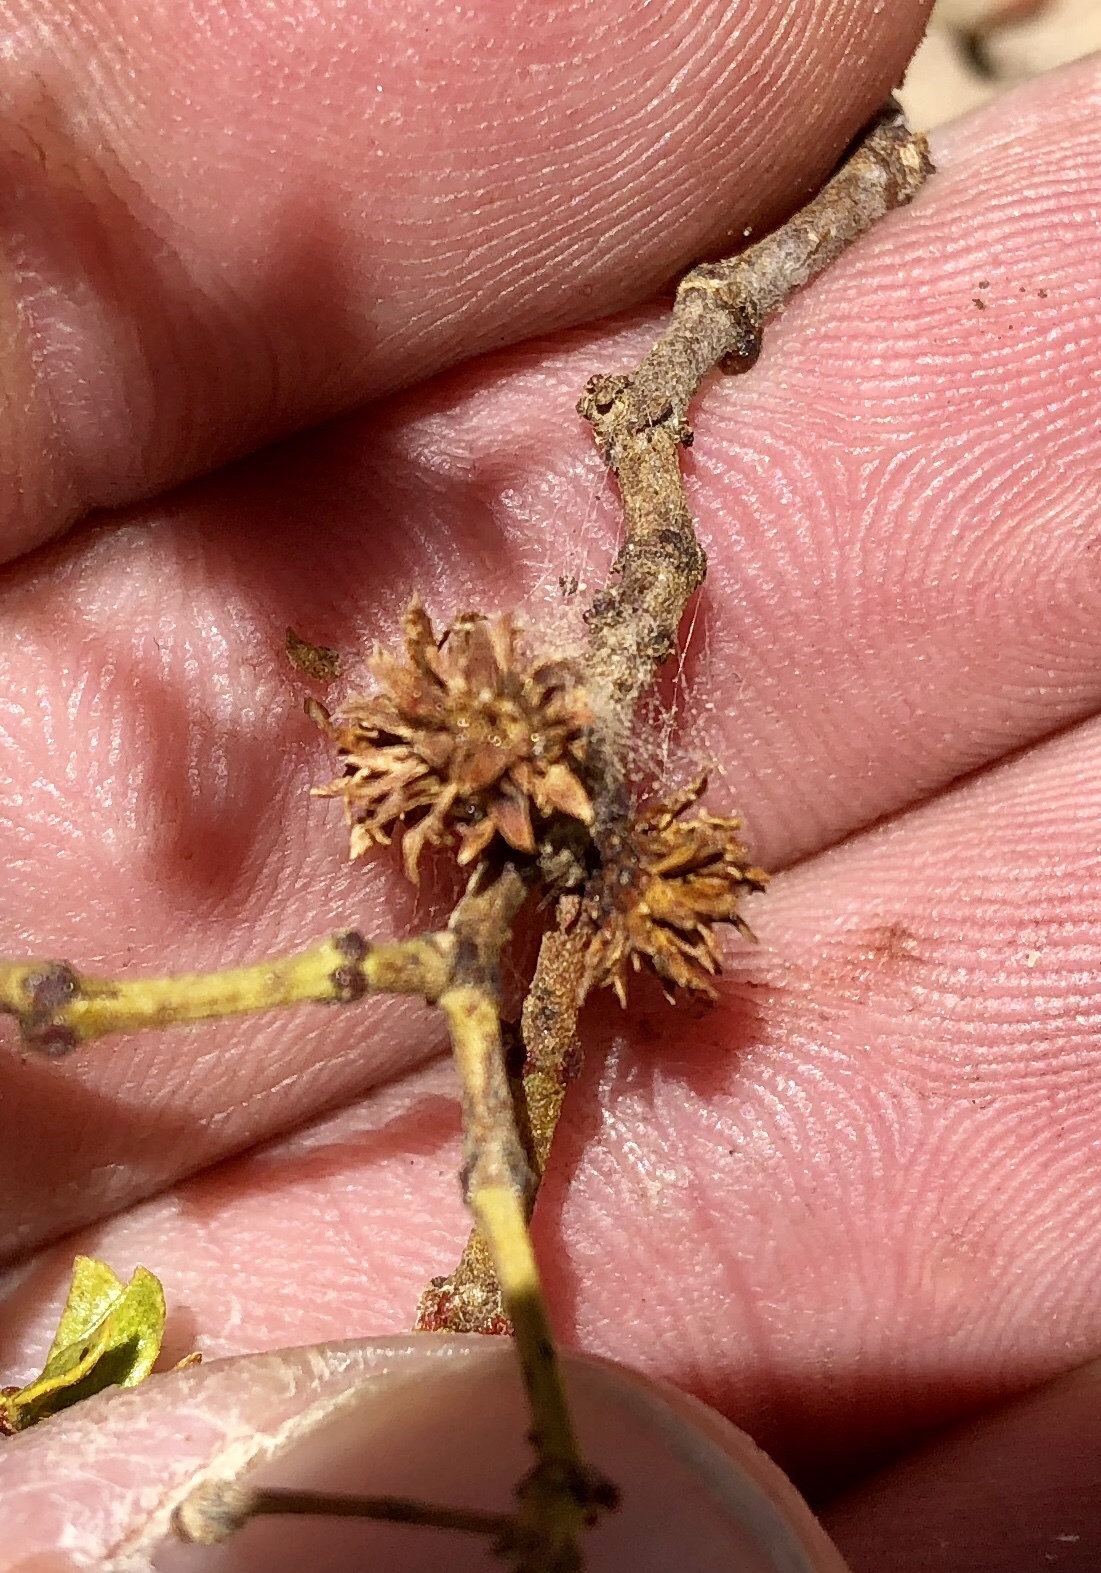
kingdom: Animalia
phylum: Arthropoda
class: Insecta
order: Diptera
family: Cecidomyiidae
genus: Asphondylia
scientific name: Asphondylia rosetta
